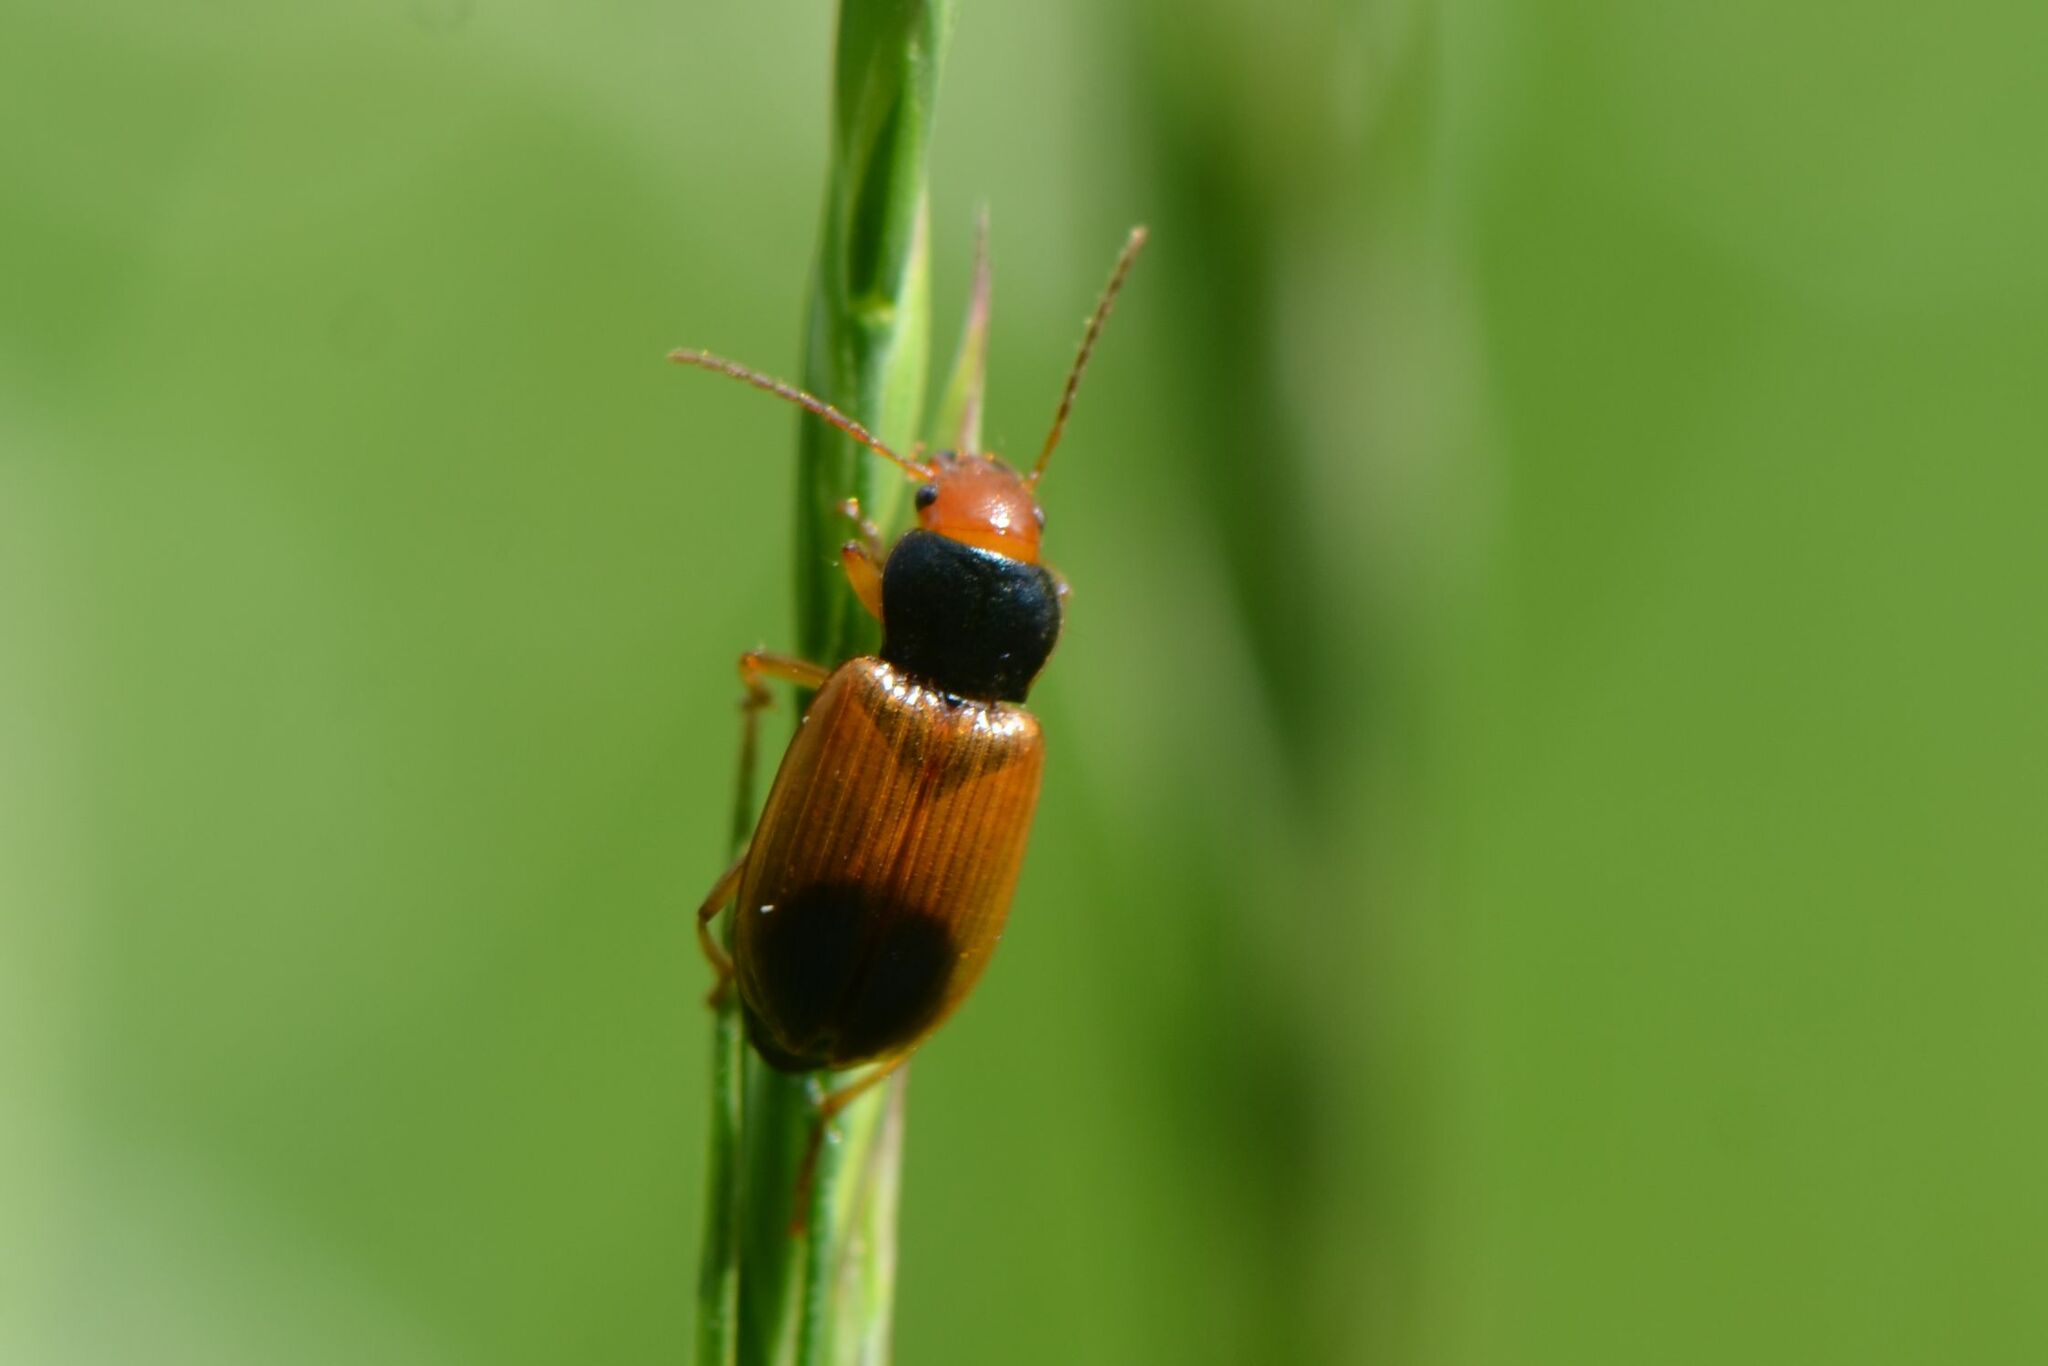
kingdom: Animalia
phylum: Arthropoda
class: Insecta
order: Coleoptera
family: Carabidae
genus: Diachromus
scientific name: Diachromus germanus
